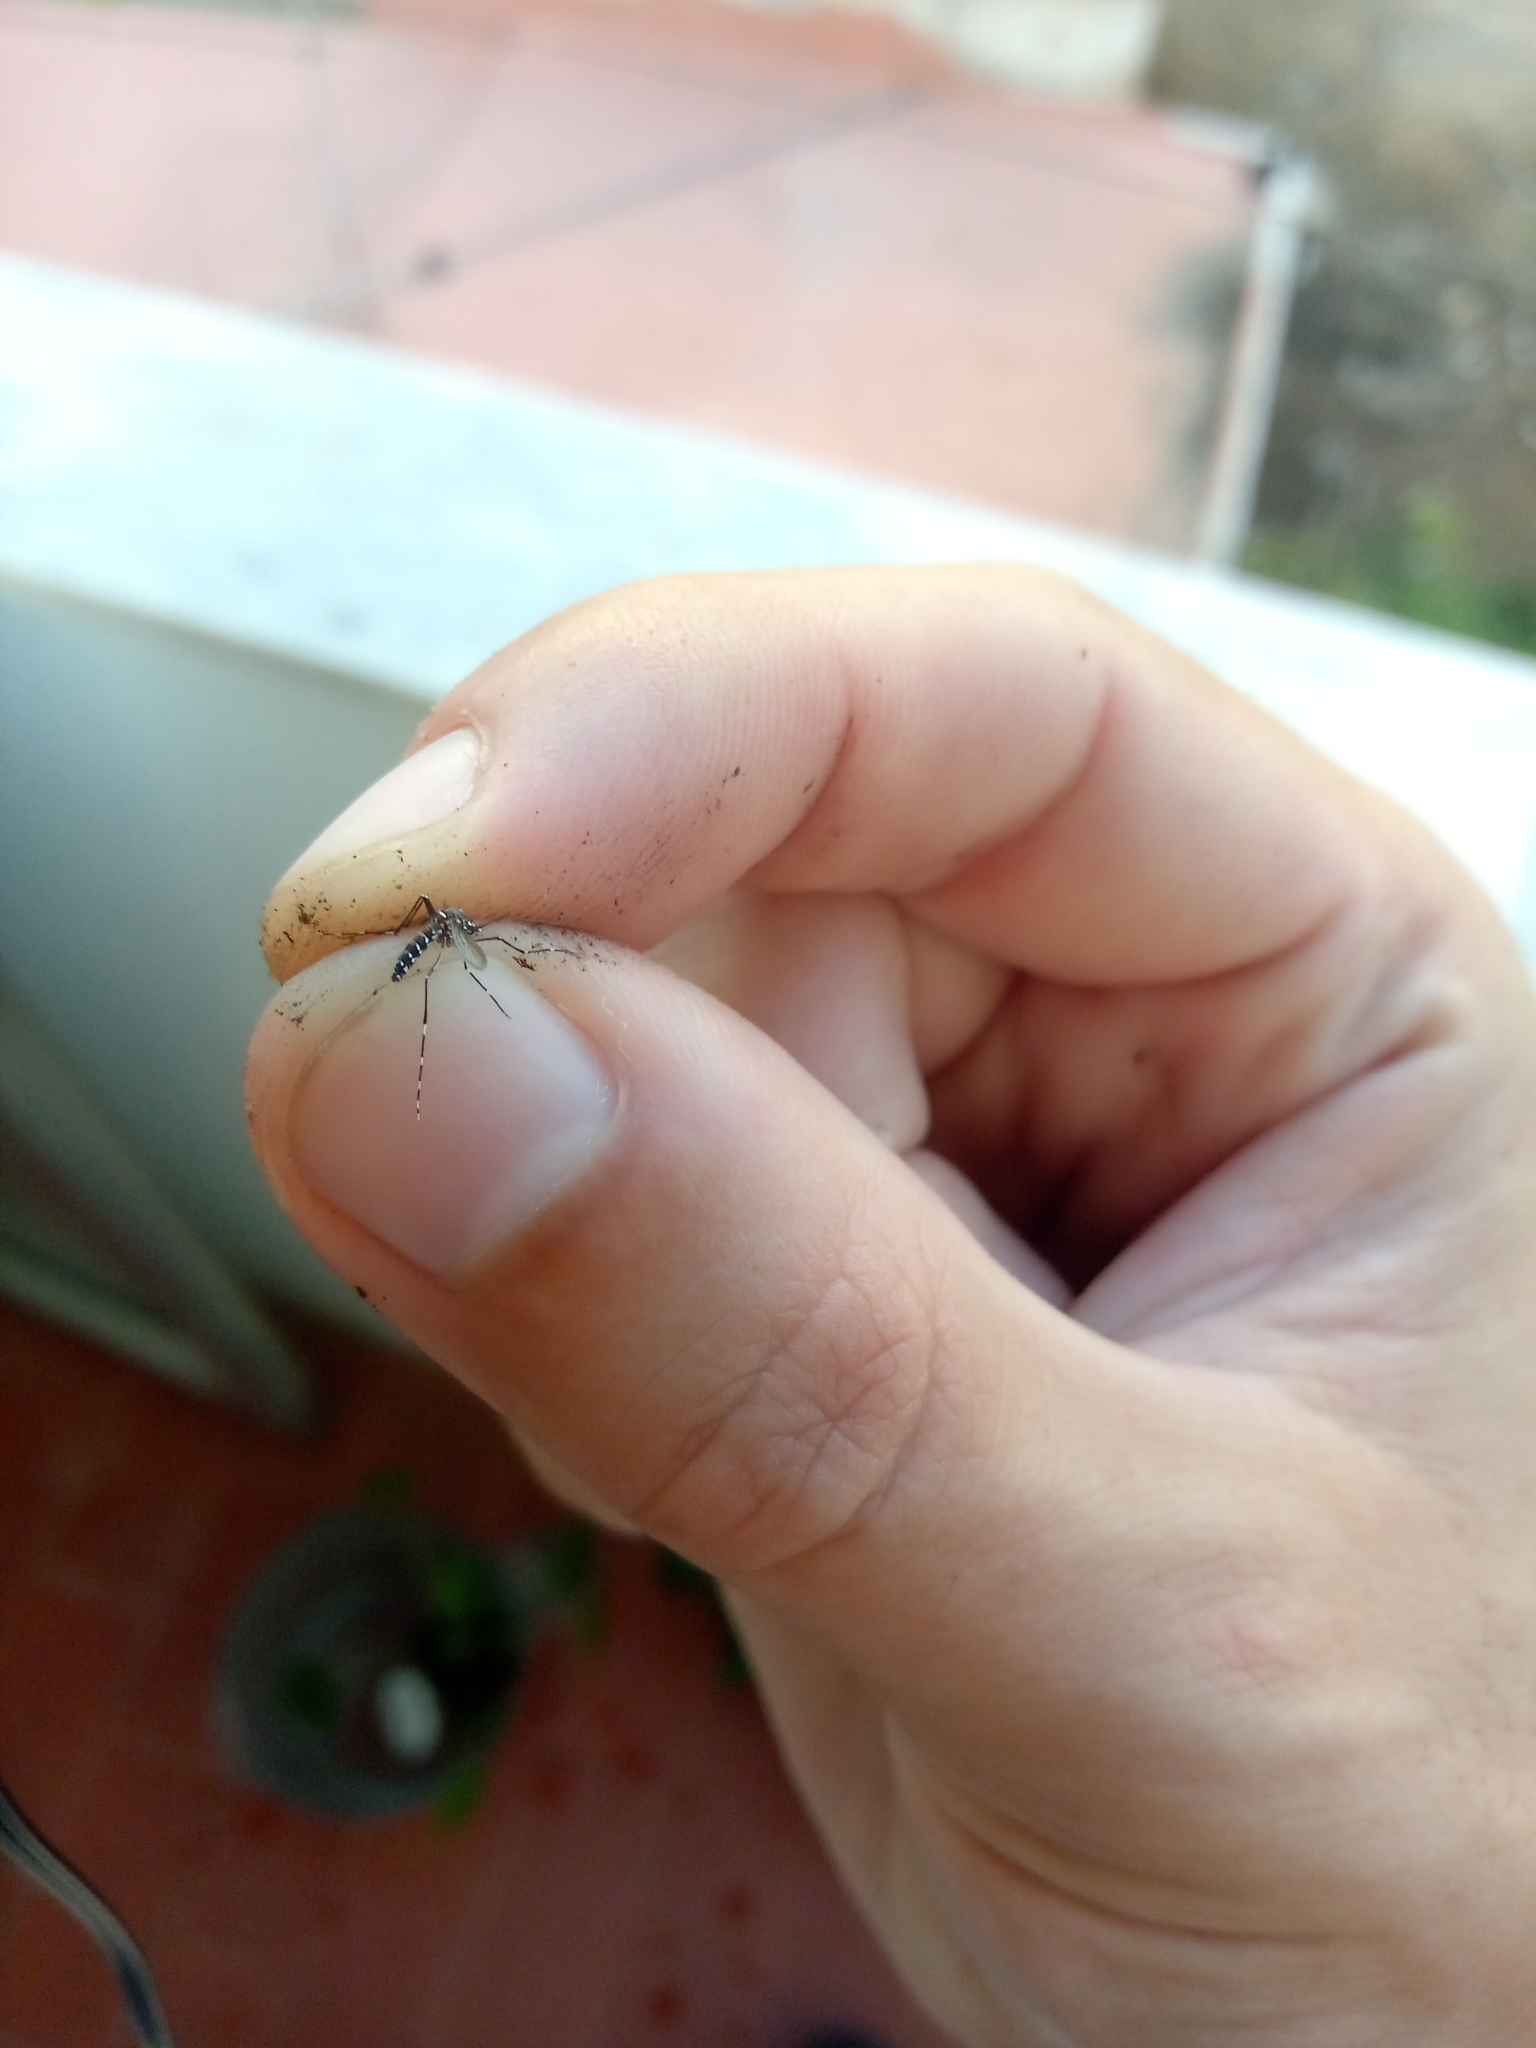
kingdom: Animalia
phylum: Arthropoda
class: Insecta
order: Diptera
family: Culicidae
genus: Aedes
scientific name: Aedes albopictus
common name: Tiger mosquito
